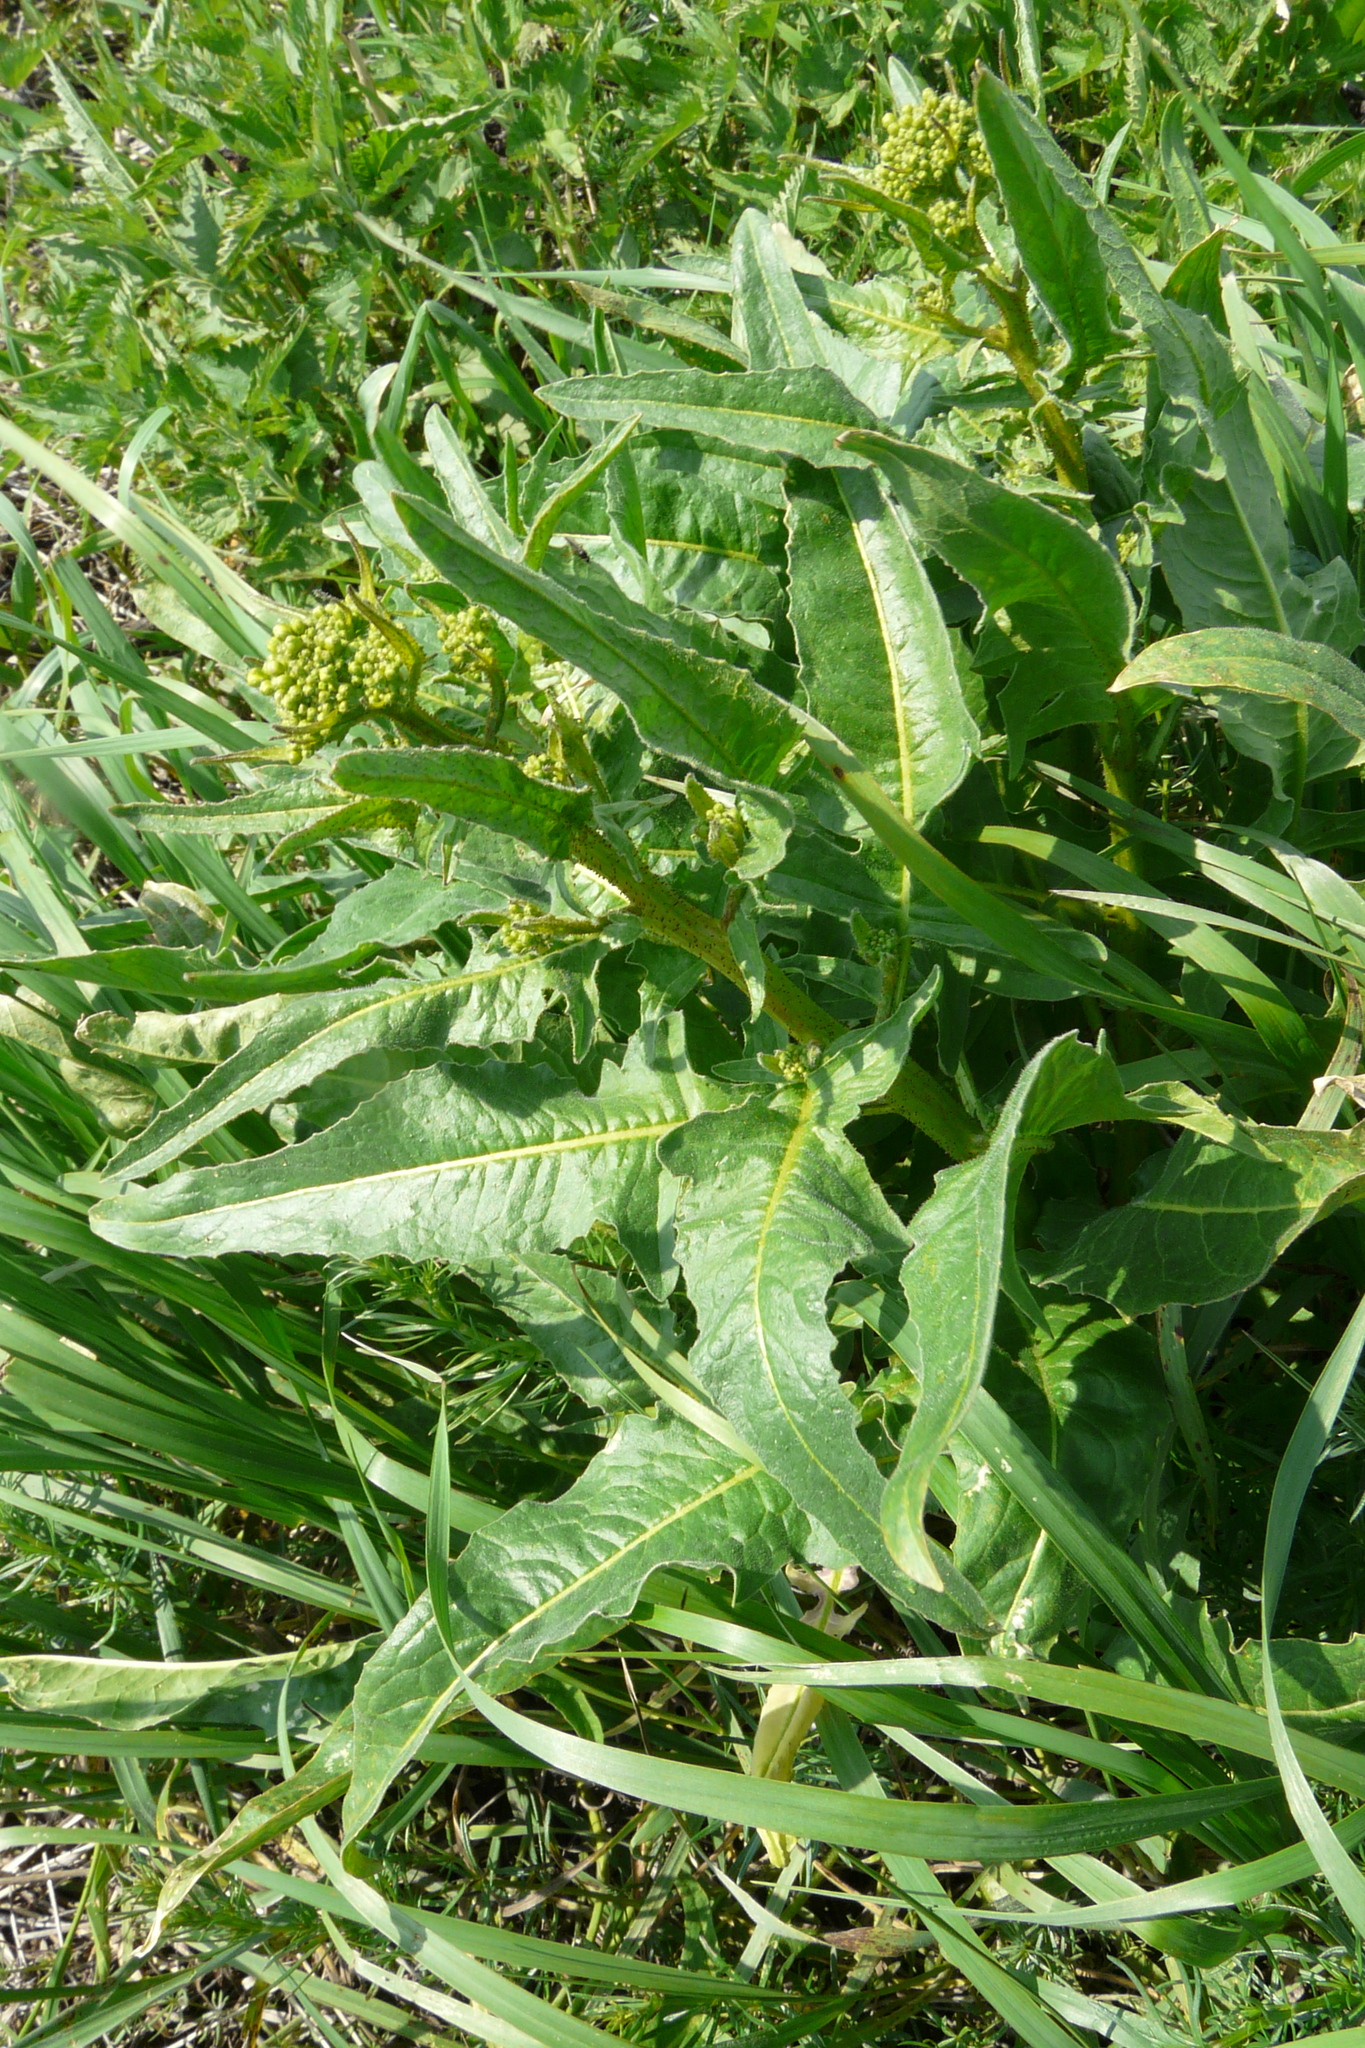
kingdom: Plantae
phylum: Tracheophyta
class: Magnoliopsida
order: Brassicales
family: Brassicaceae
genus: Bunias
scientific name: Bunias orientalis
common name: Warty-cabbage
